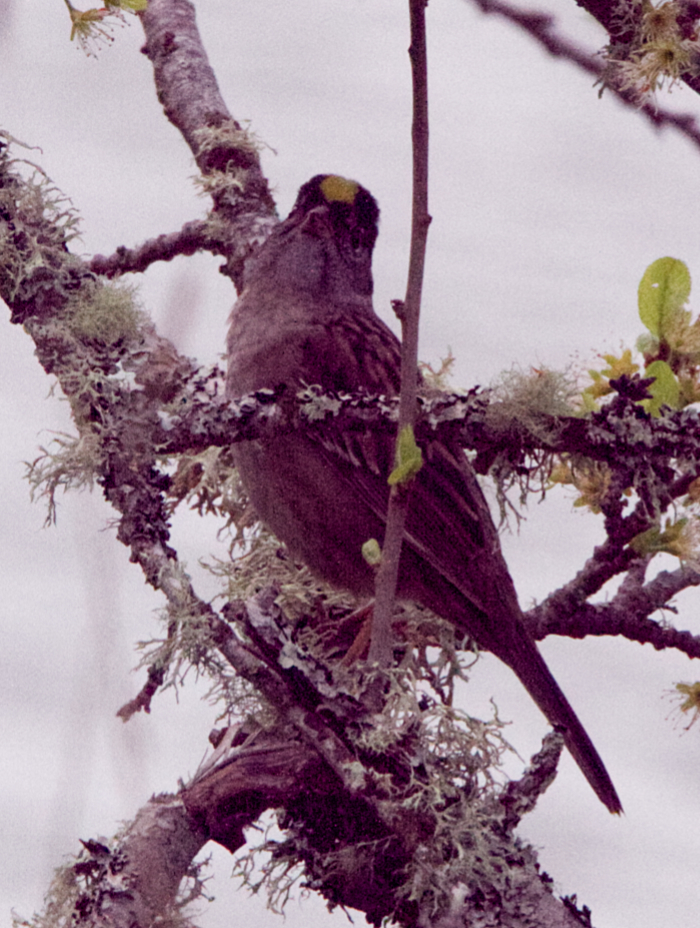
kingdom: Animalia
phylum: Chordata
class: Aves
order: Passeriformes
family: Passerellidae
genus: Zonotrichia
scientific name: Zonotrichia atricapilla
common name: Golden-crowned sparrow
